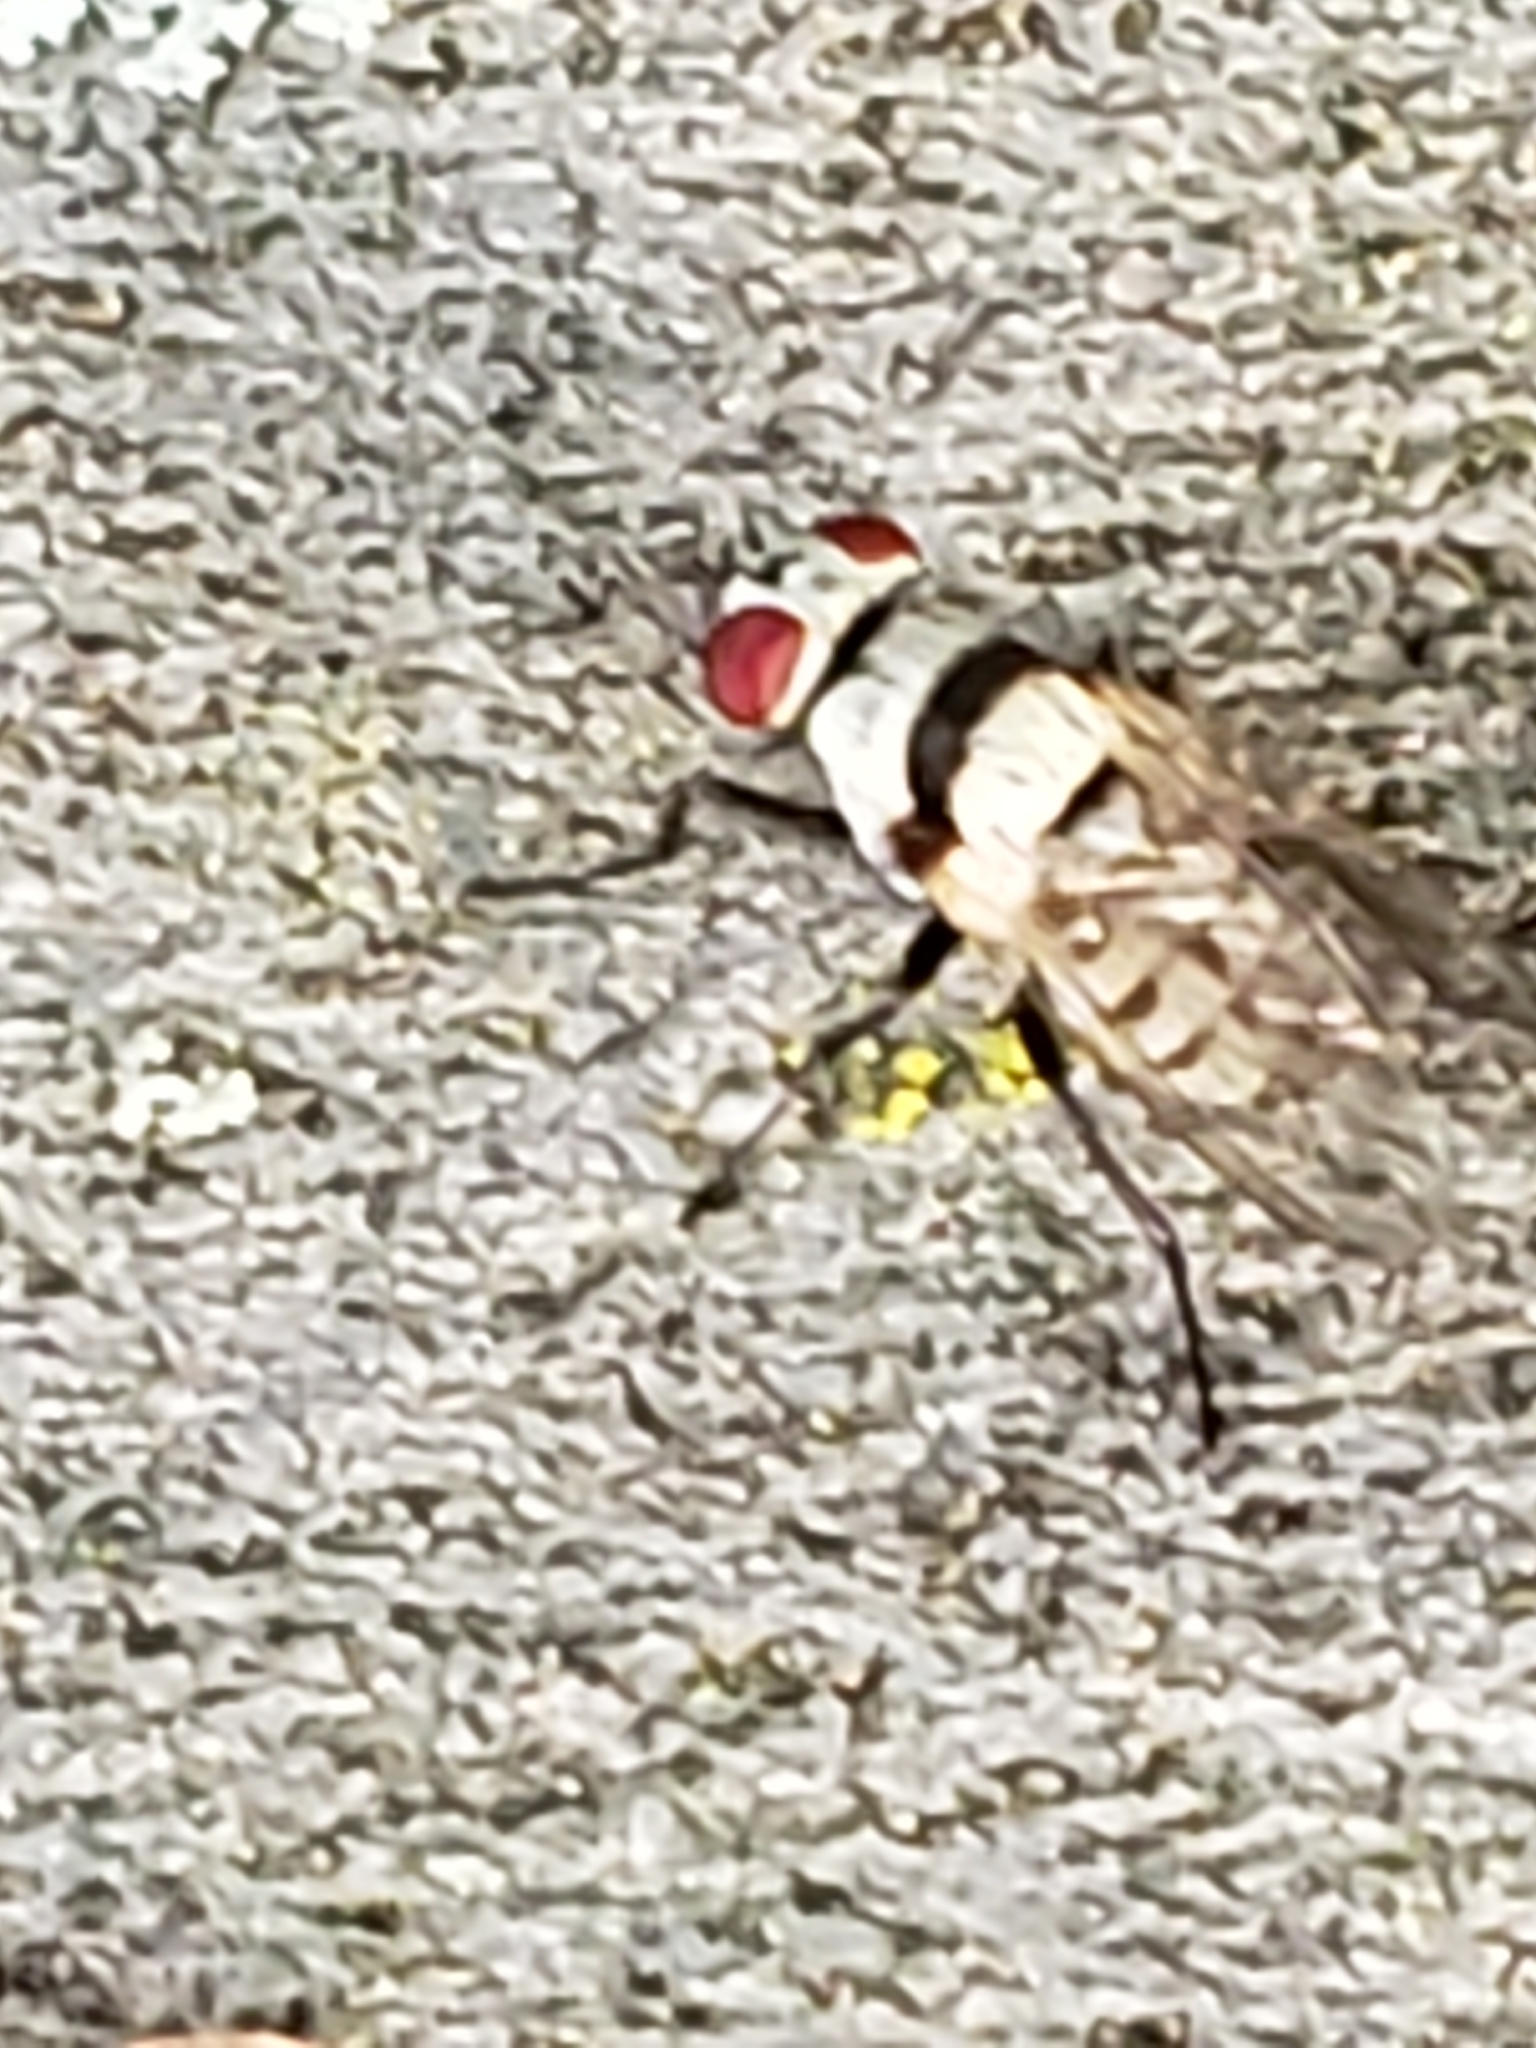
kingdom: Animalia
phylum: Arthropoda
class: Insecta
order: Diptera
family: Anthomyiidae
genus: Anthomyia
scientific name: Anthomyia illocata
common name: Fly
